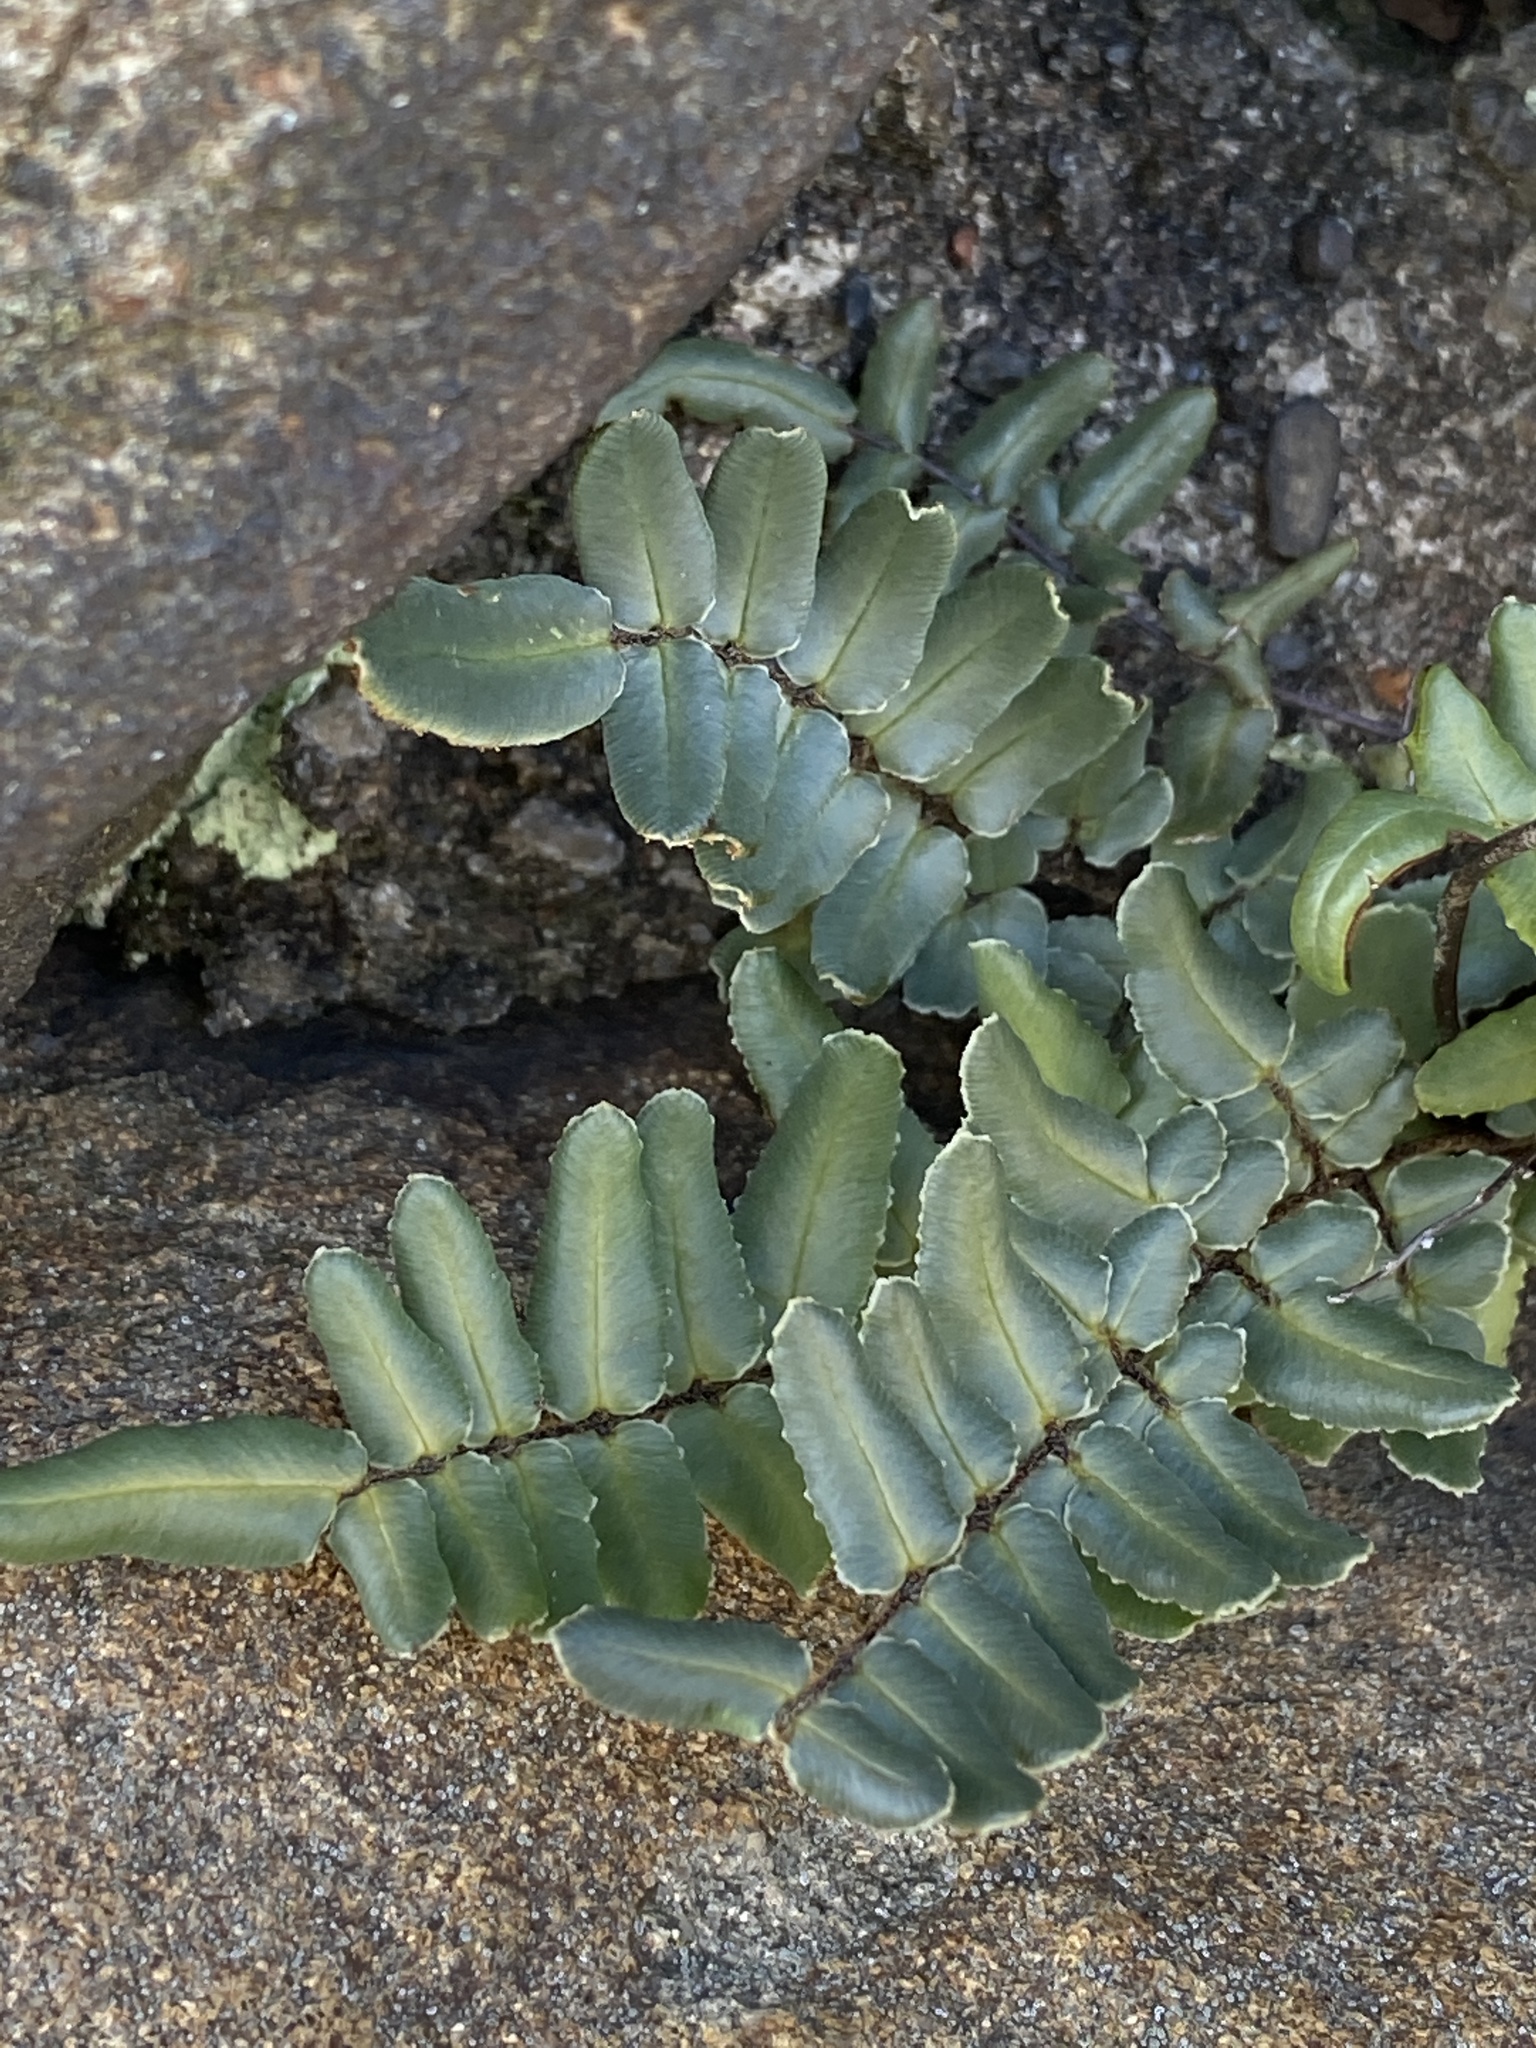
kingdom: Plantae
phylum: Tracheophyta
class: Polypodiopsida
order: Polypodiales
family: Pteridaceae
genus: Pellaea
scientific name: Pellaea atropurpurea
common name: Hairy cliffbrake
